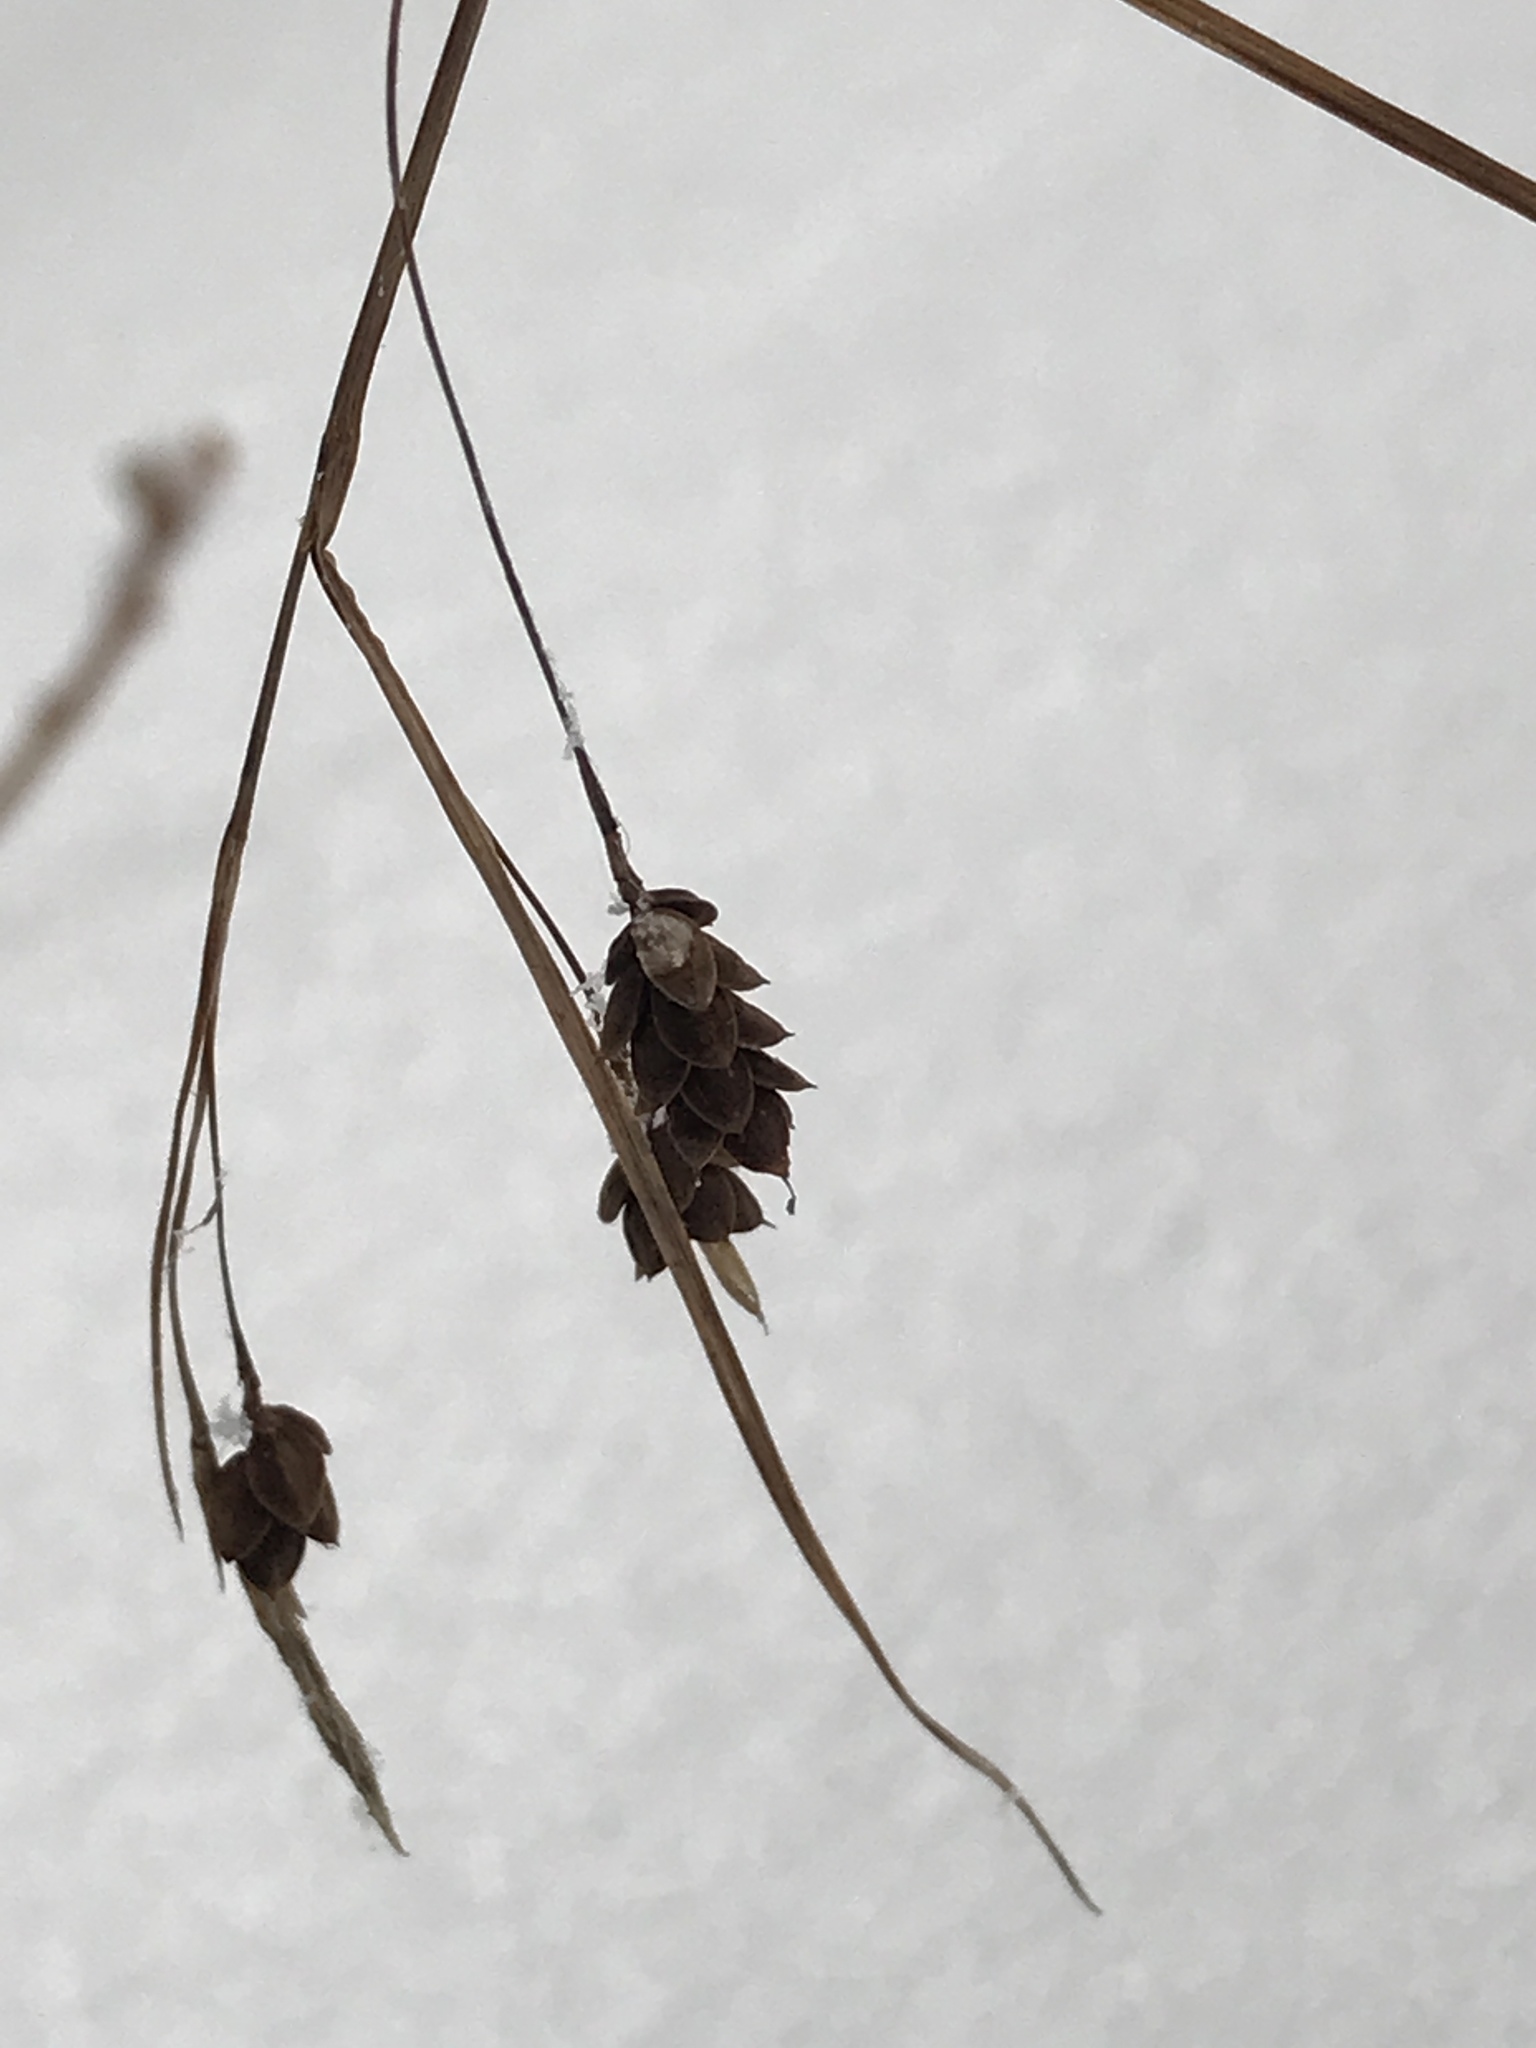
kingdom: Plantae
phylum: Tracheophyta
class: Liliopsida
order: Poales
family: Cyperaceae
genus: Carex
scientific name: Carex magellanica
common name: Bog sedge
